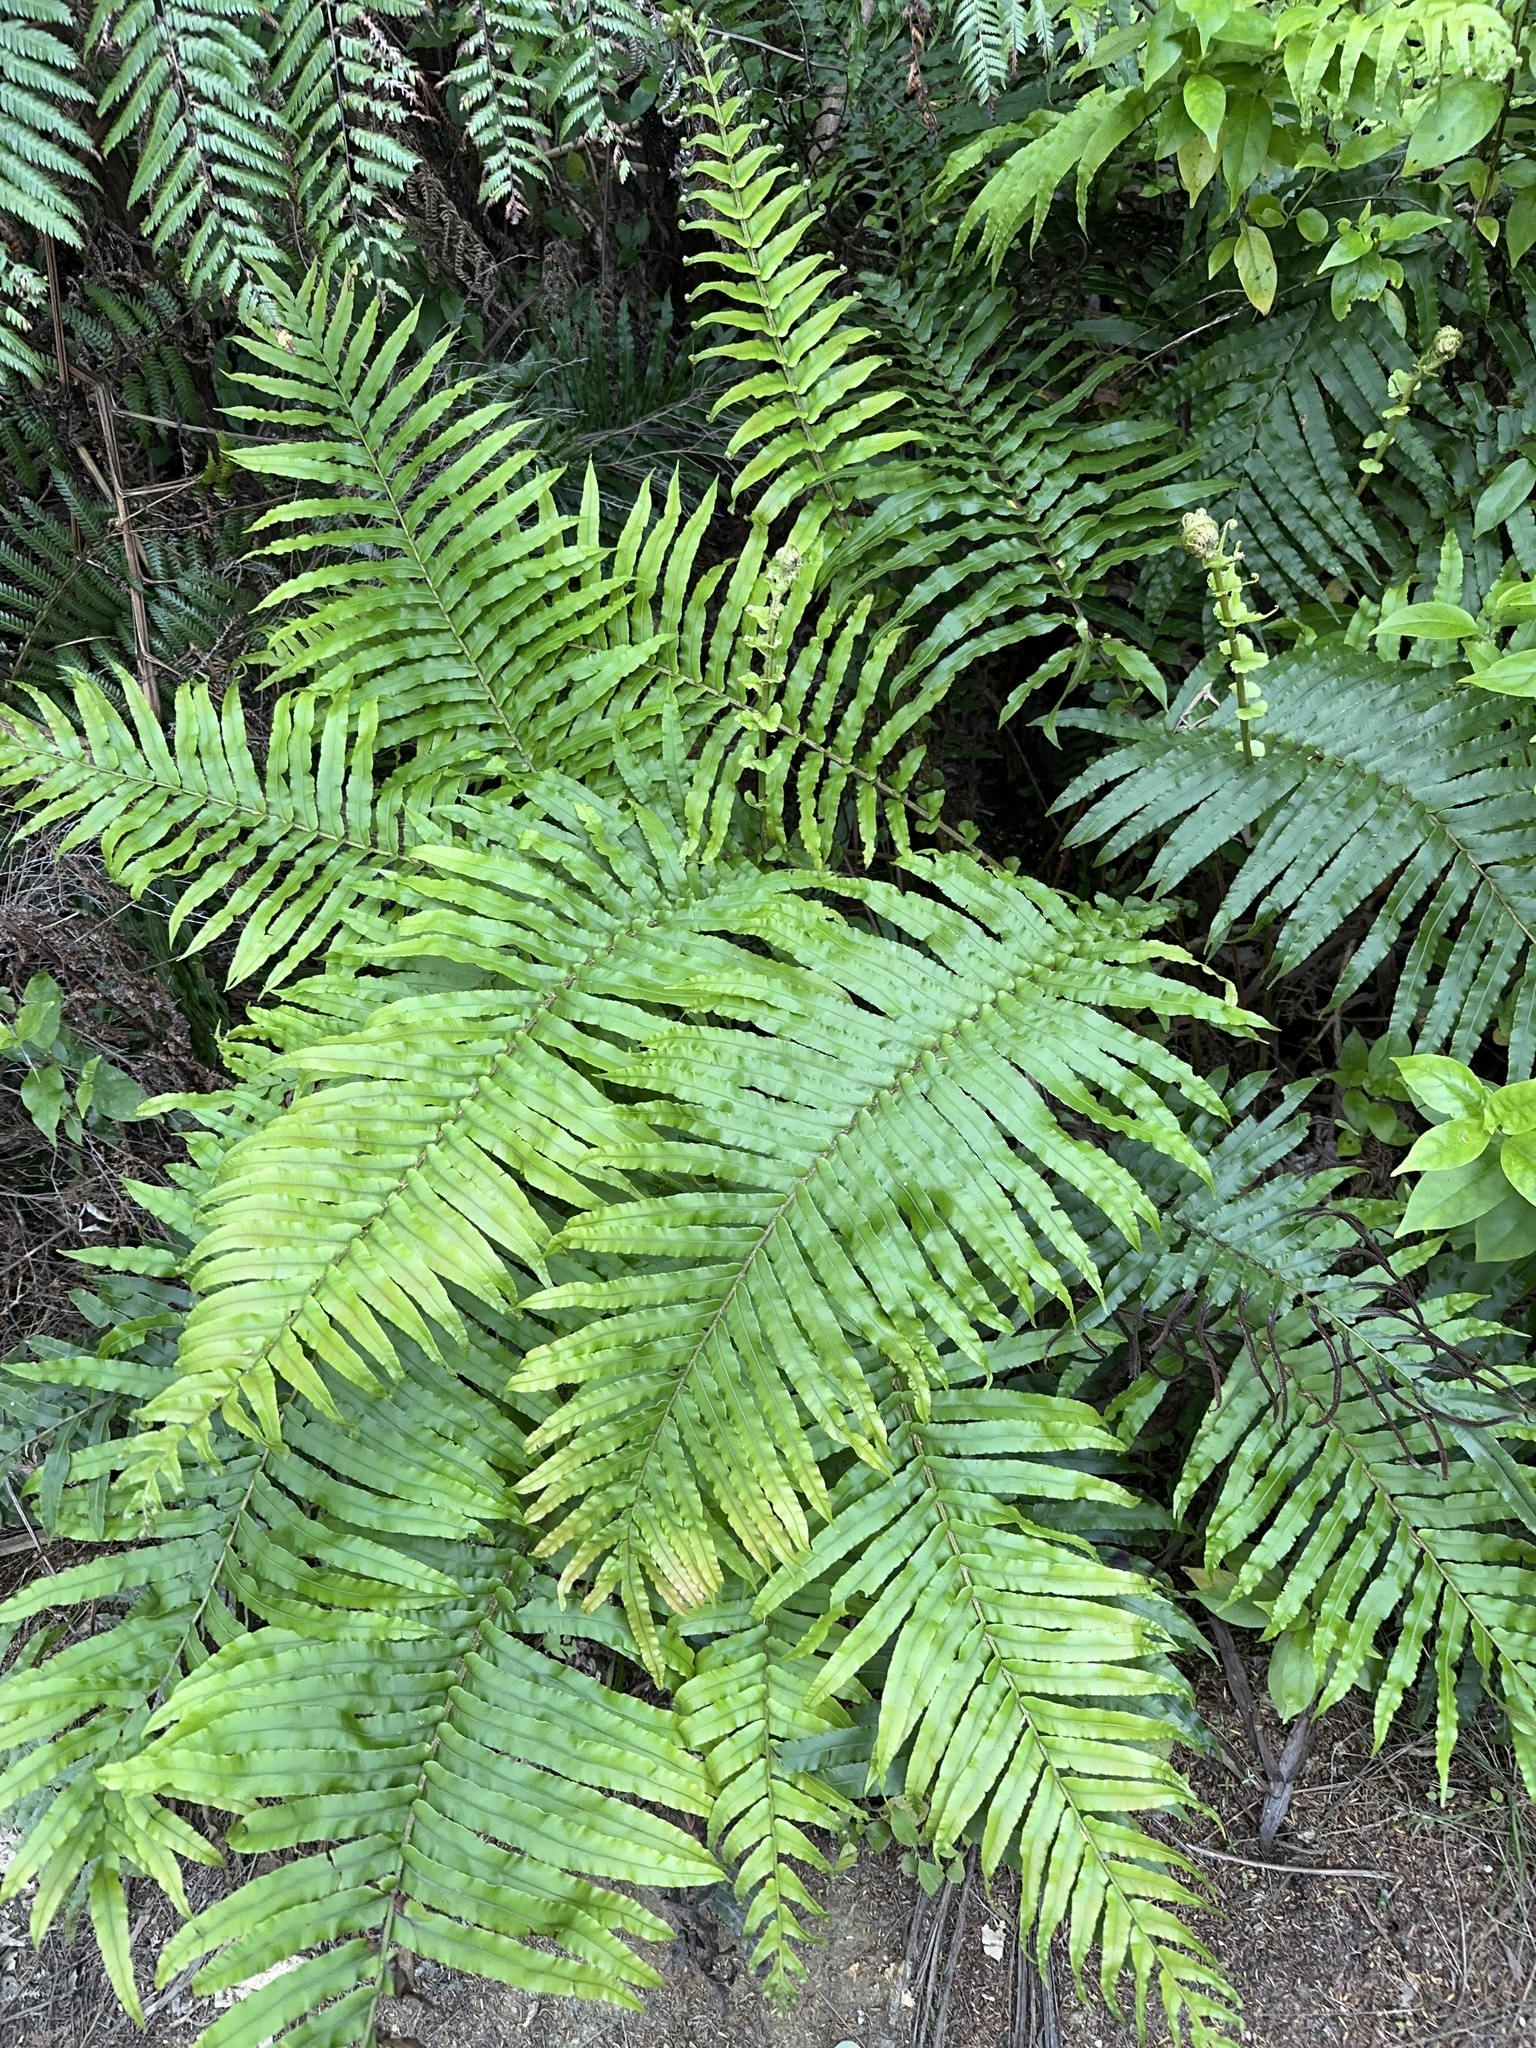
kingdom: Plantae
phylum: Tracheophyta
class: Polypodiopsida
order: Polypodiales
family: Blechnaceae
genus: Parablechnum
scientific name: Parablechnum novae-zelandiae
